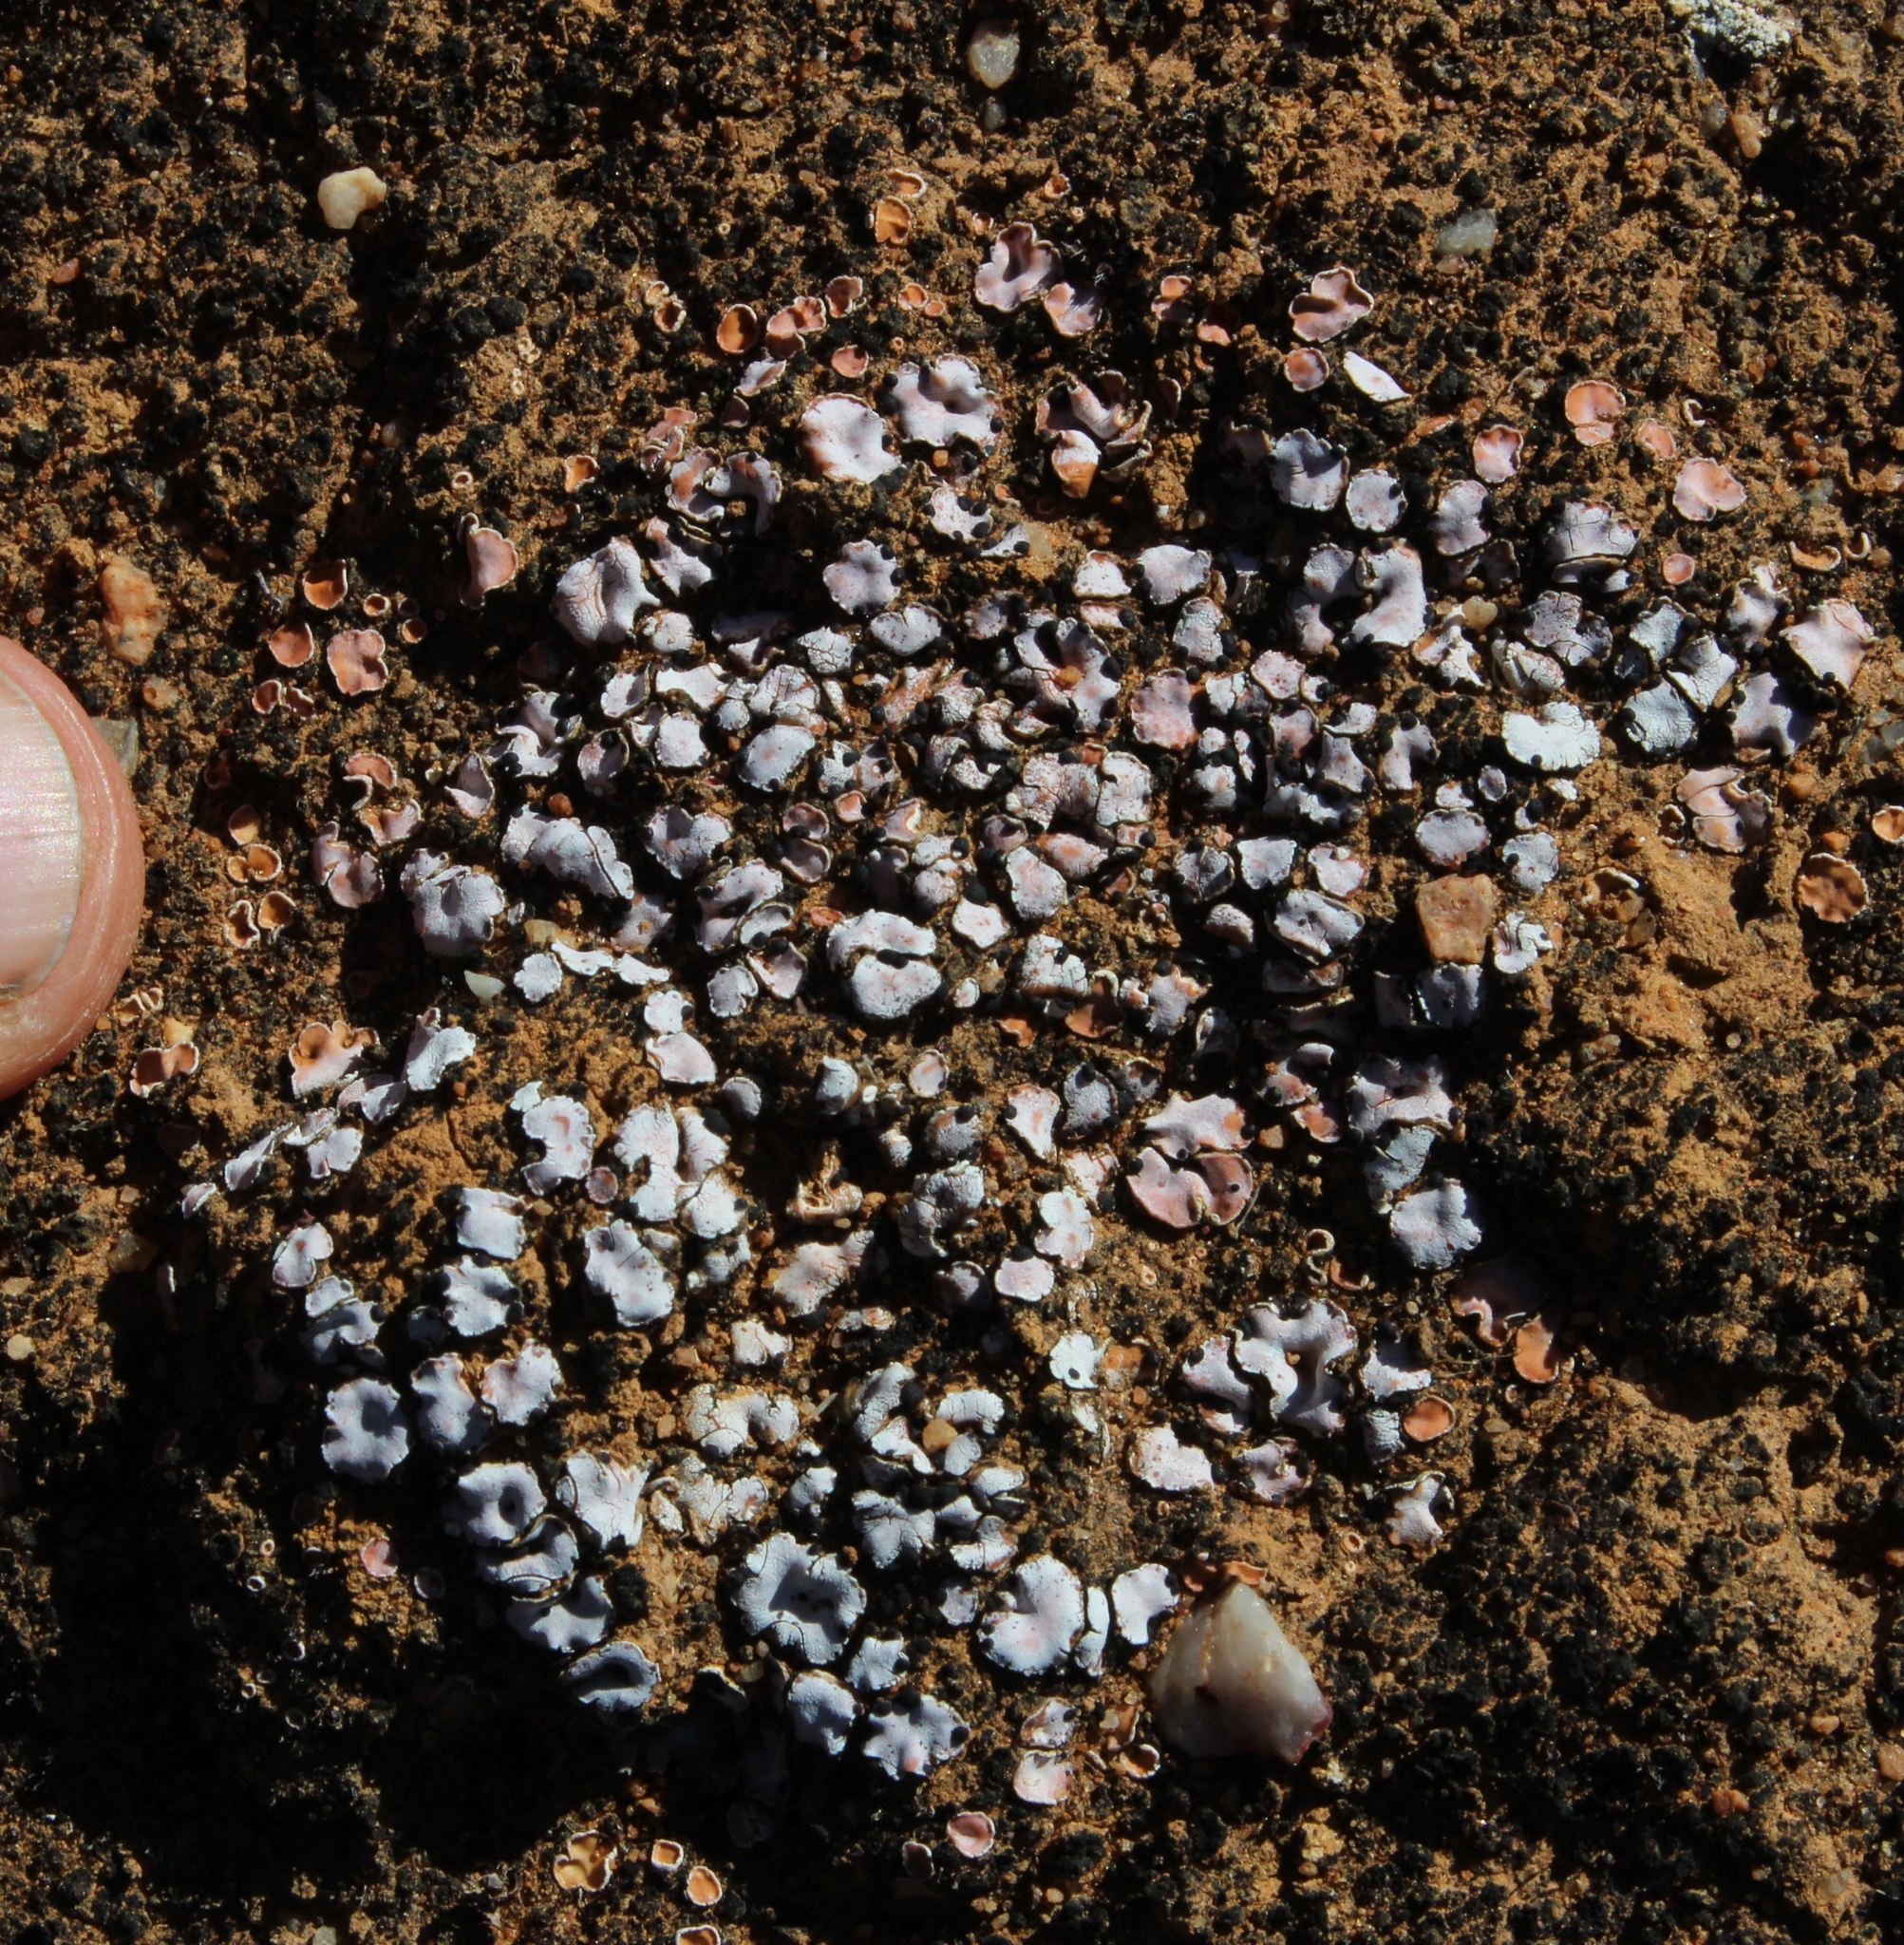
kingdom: Fungi
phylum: Ascomycota
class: Lecanoromycetes
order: Lecanorales
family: Psoraceae
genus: Psora
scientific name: Psora decipiens
